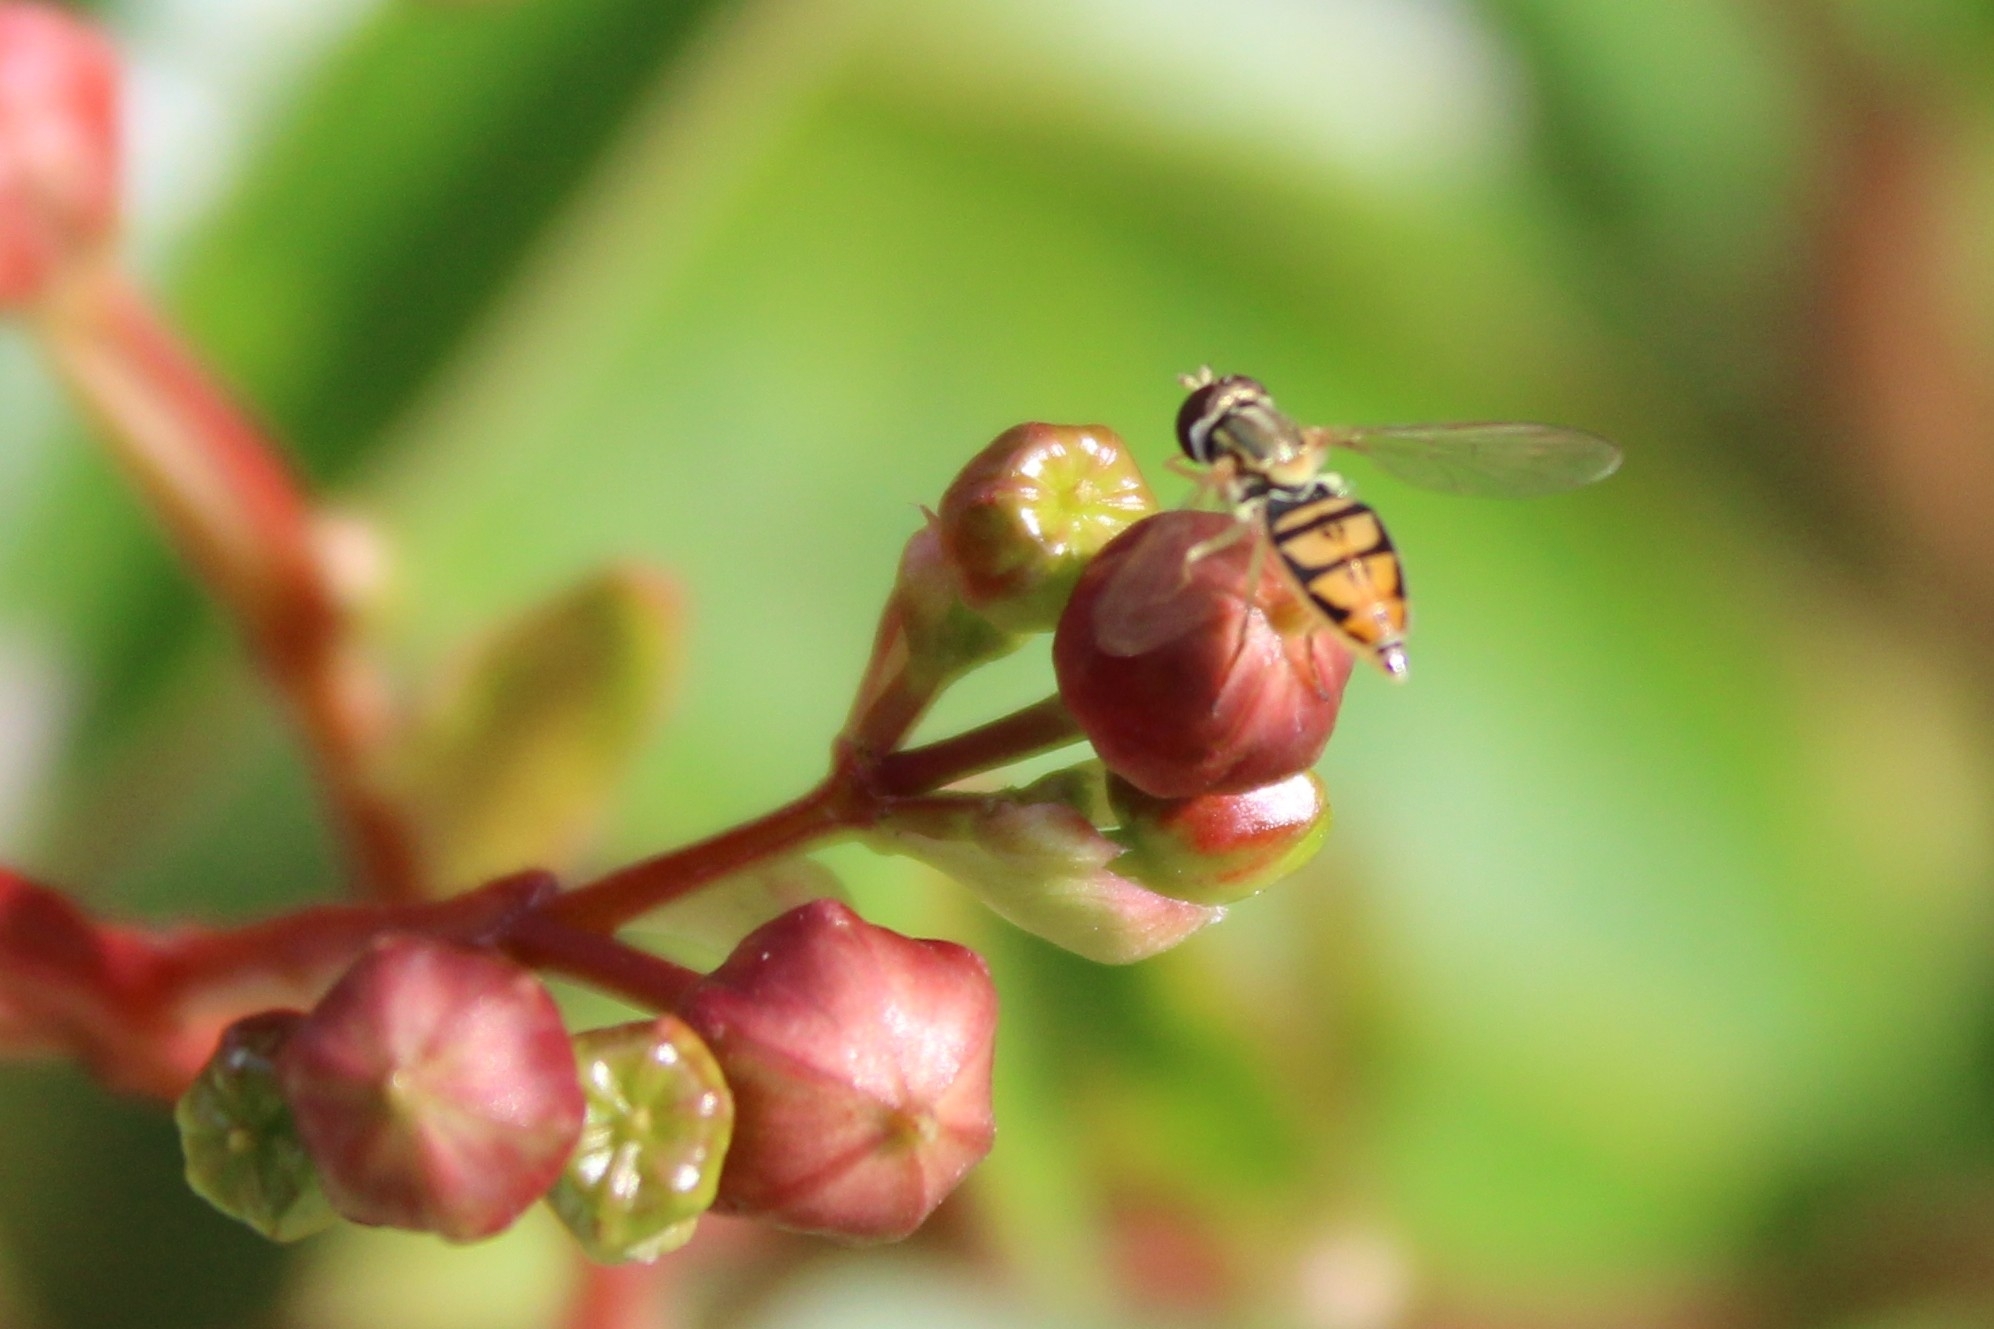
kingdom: Animalia
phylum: Arthropoda
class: Insecta
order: Diptera
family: Syrphidae
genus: Toxomerus
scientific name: Toxomerus marginatus
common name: Syrphid fly
